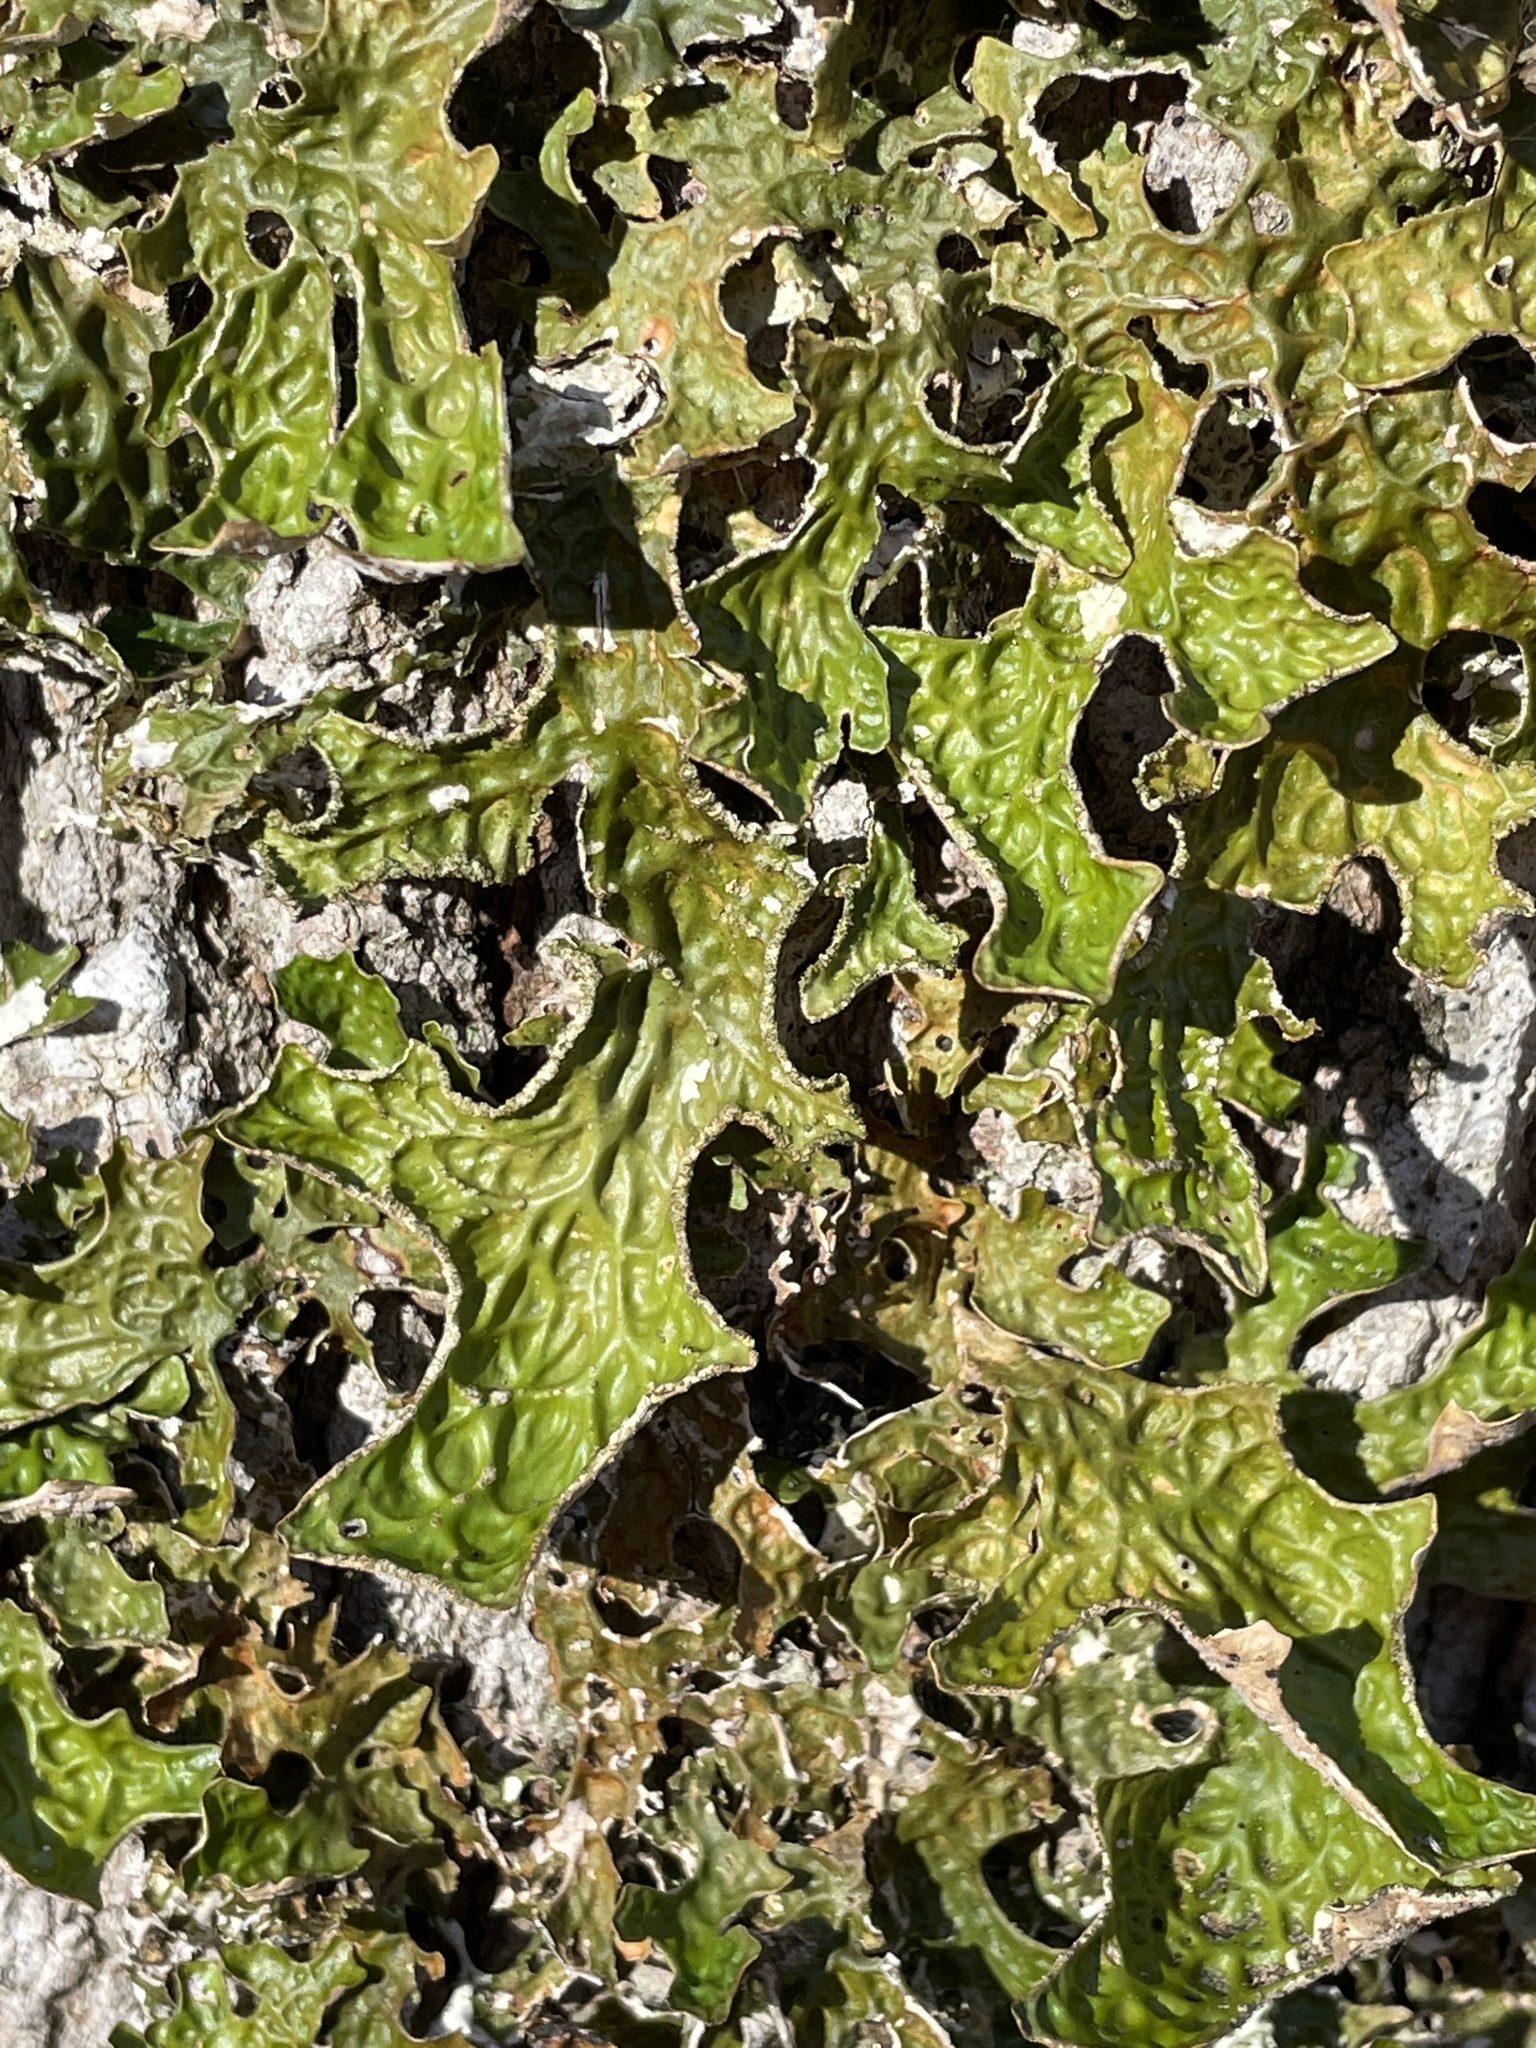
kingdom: Fungi
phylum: Ascomycota
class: Lecanoromycetes
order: Peltigerales
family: Lobariaceae
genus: Lobaria
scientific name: Lobaria pulmonaria
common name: Lungwort
